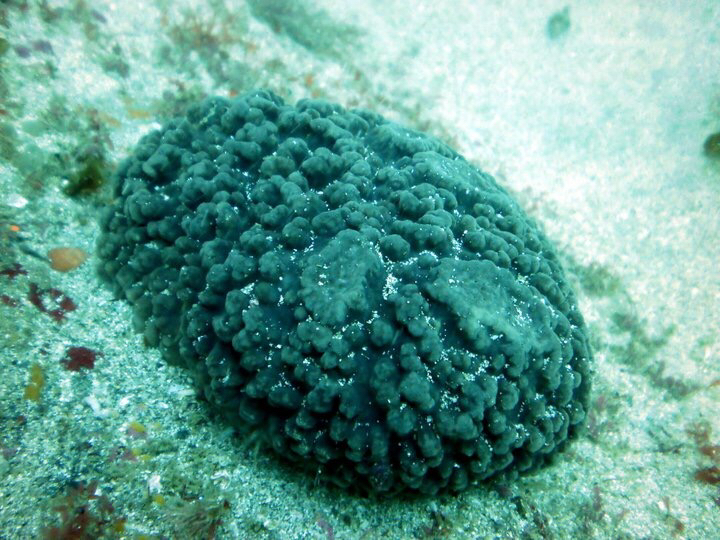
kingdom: Animalia
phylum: Porifera
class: Demospongiae
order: Polymastiida
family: Polymastiidae
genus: Polymastia
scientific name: Polymastia massalis
